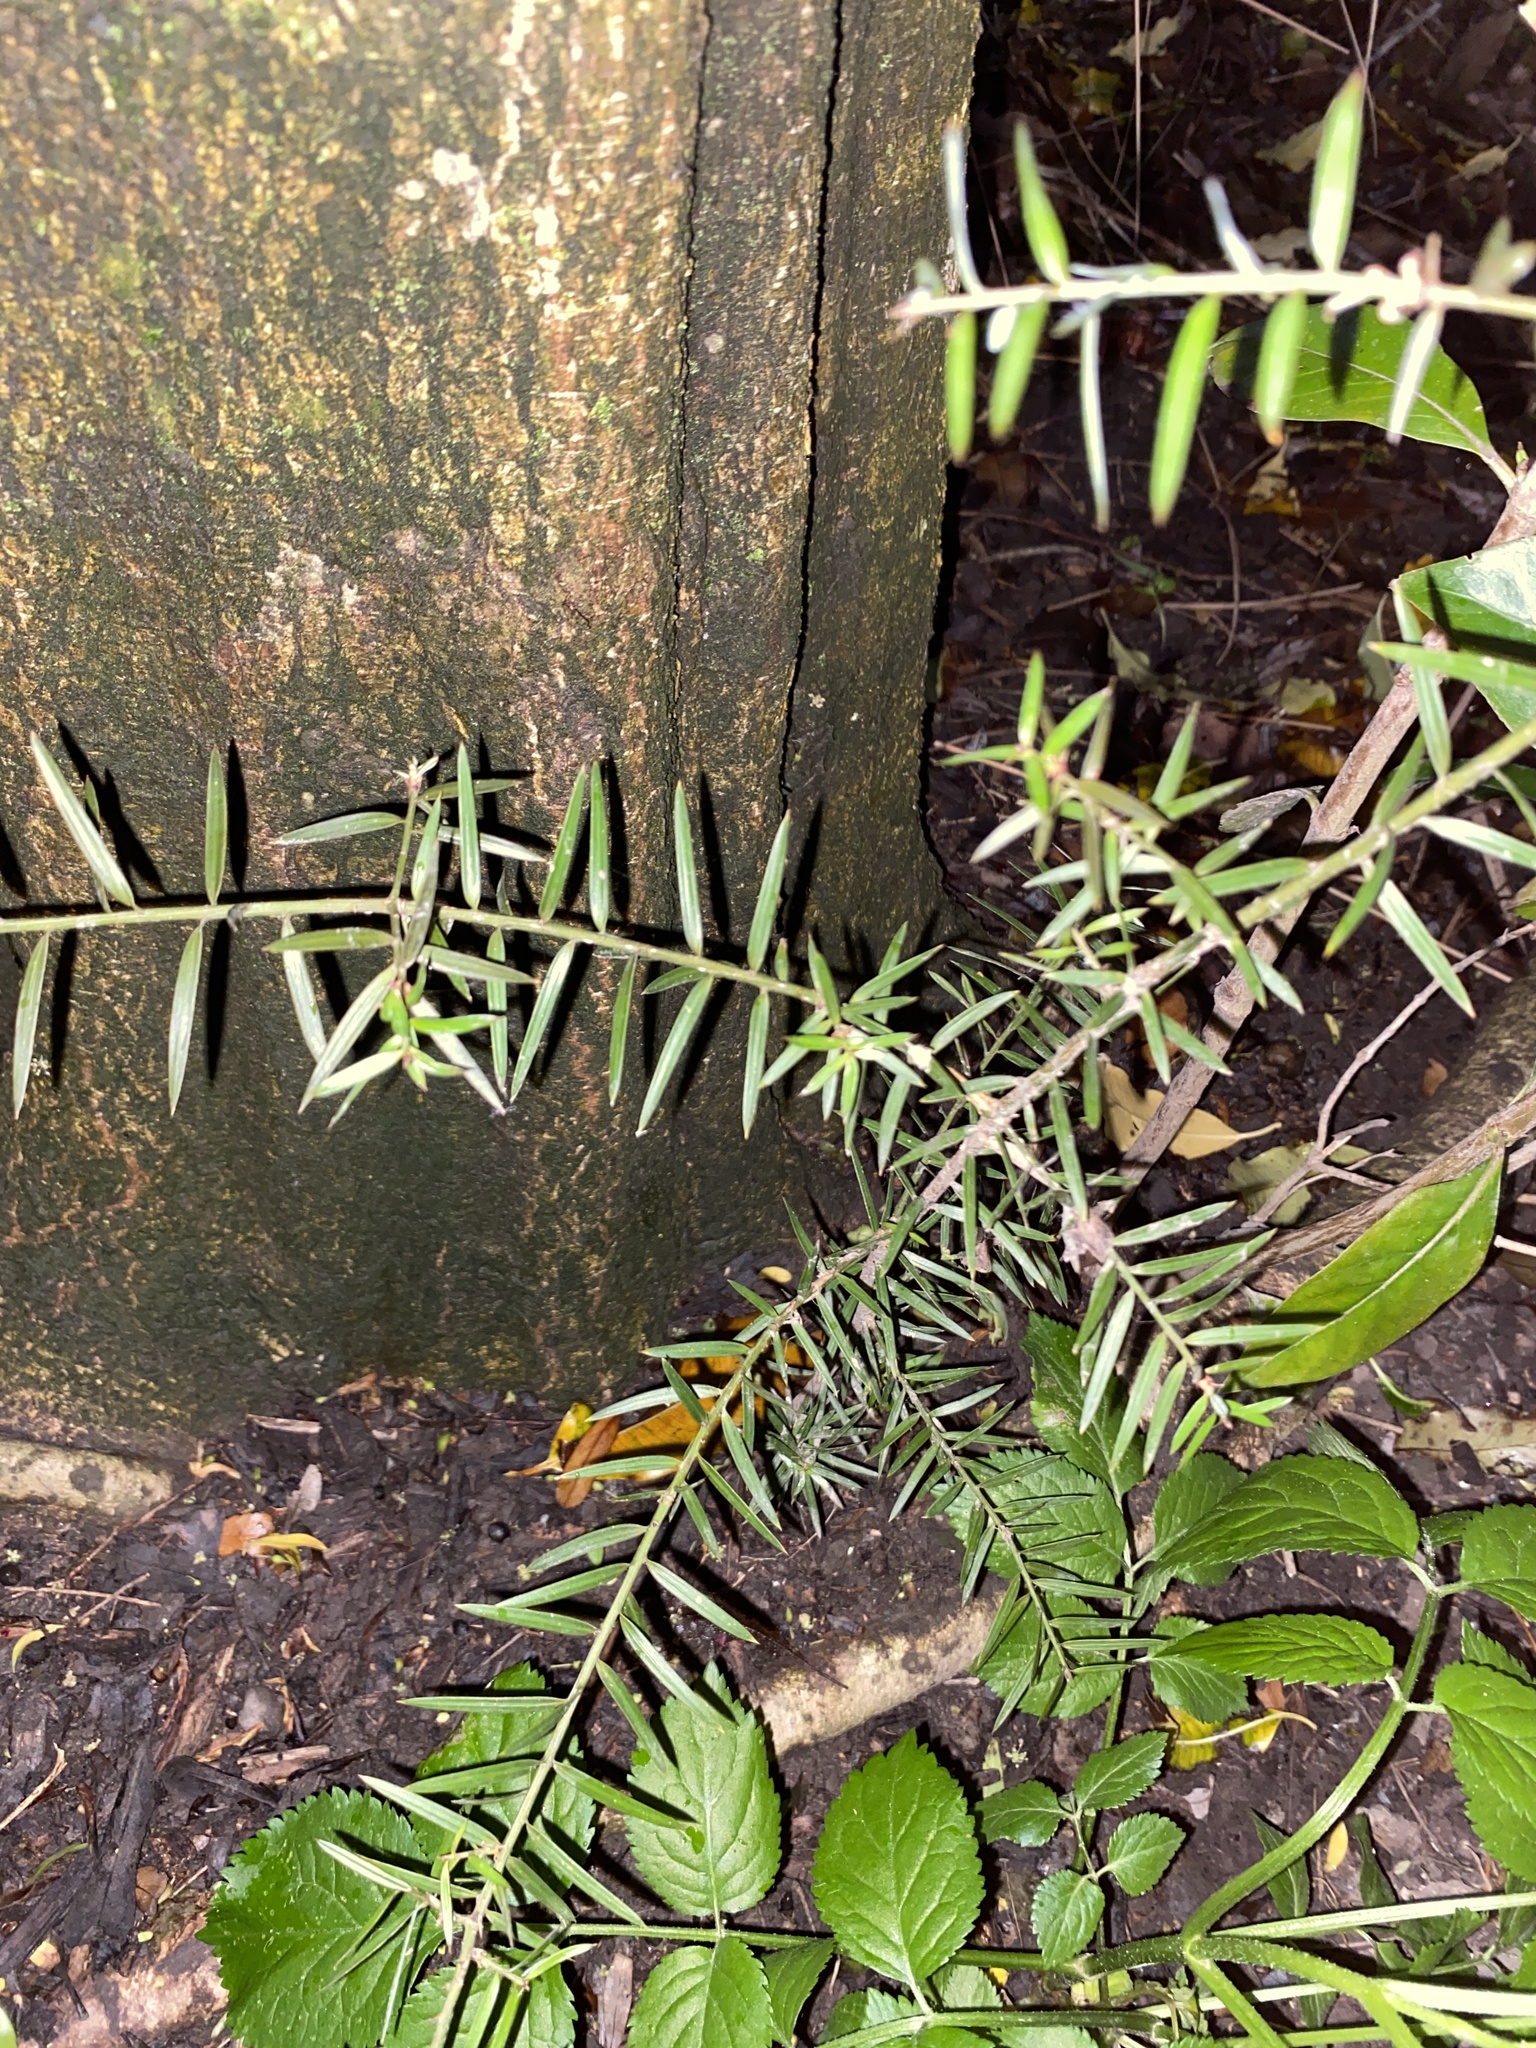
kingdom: Plantae
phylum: Tracheophyta
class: Pinopsida
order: Pinales
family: Podocarpaceae
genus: Podocarpus
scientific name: Podocarpus totara
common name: Totara
